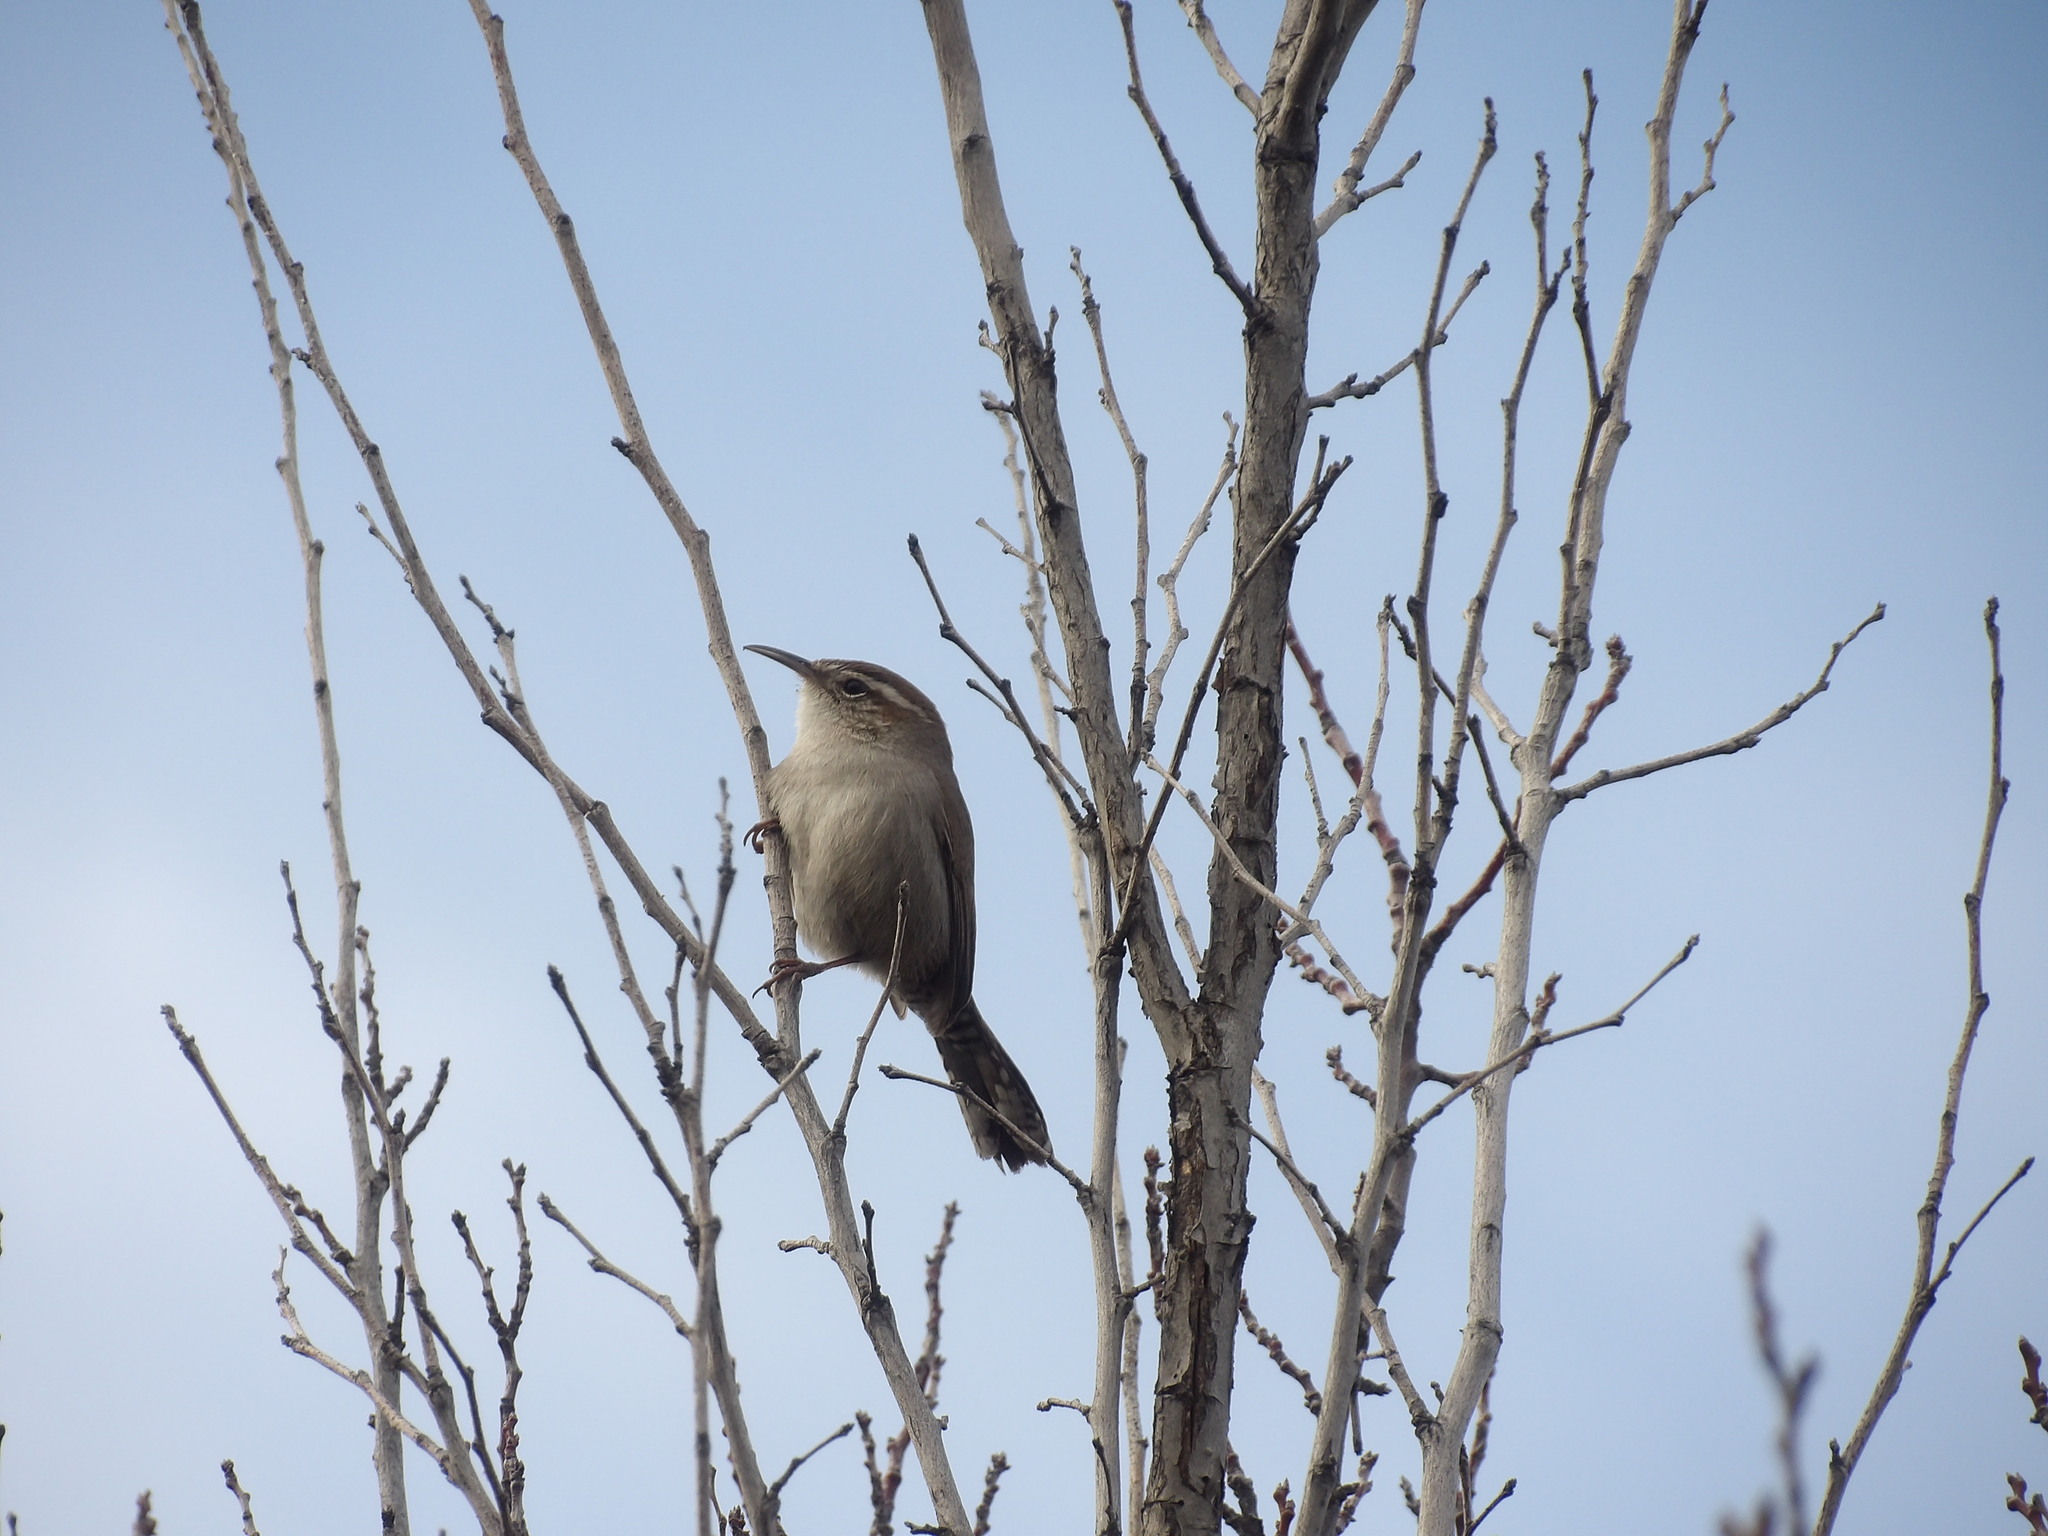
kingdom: Animalia
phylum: Chordata
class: Aves
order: Passeriformes
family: Troglodytidae
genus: Thryomanes
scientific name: Thryomanes bewickii
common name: Bewick's wren
